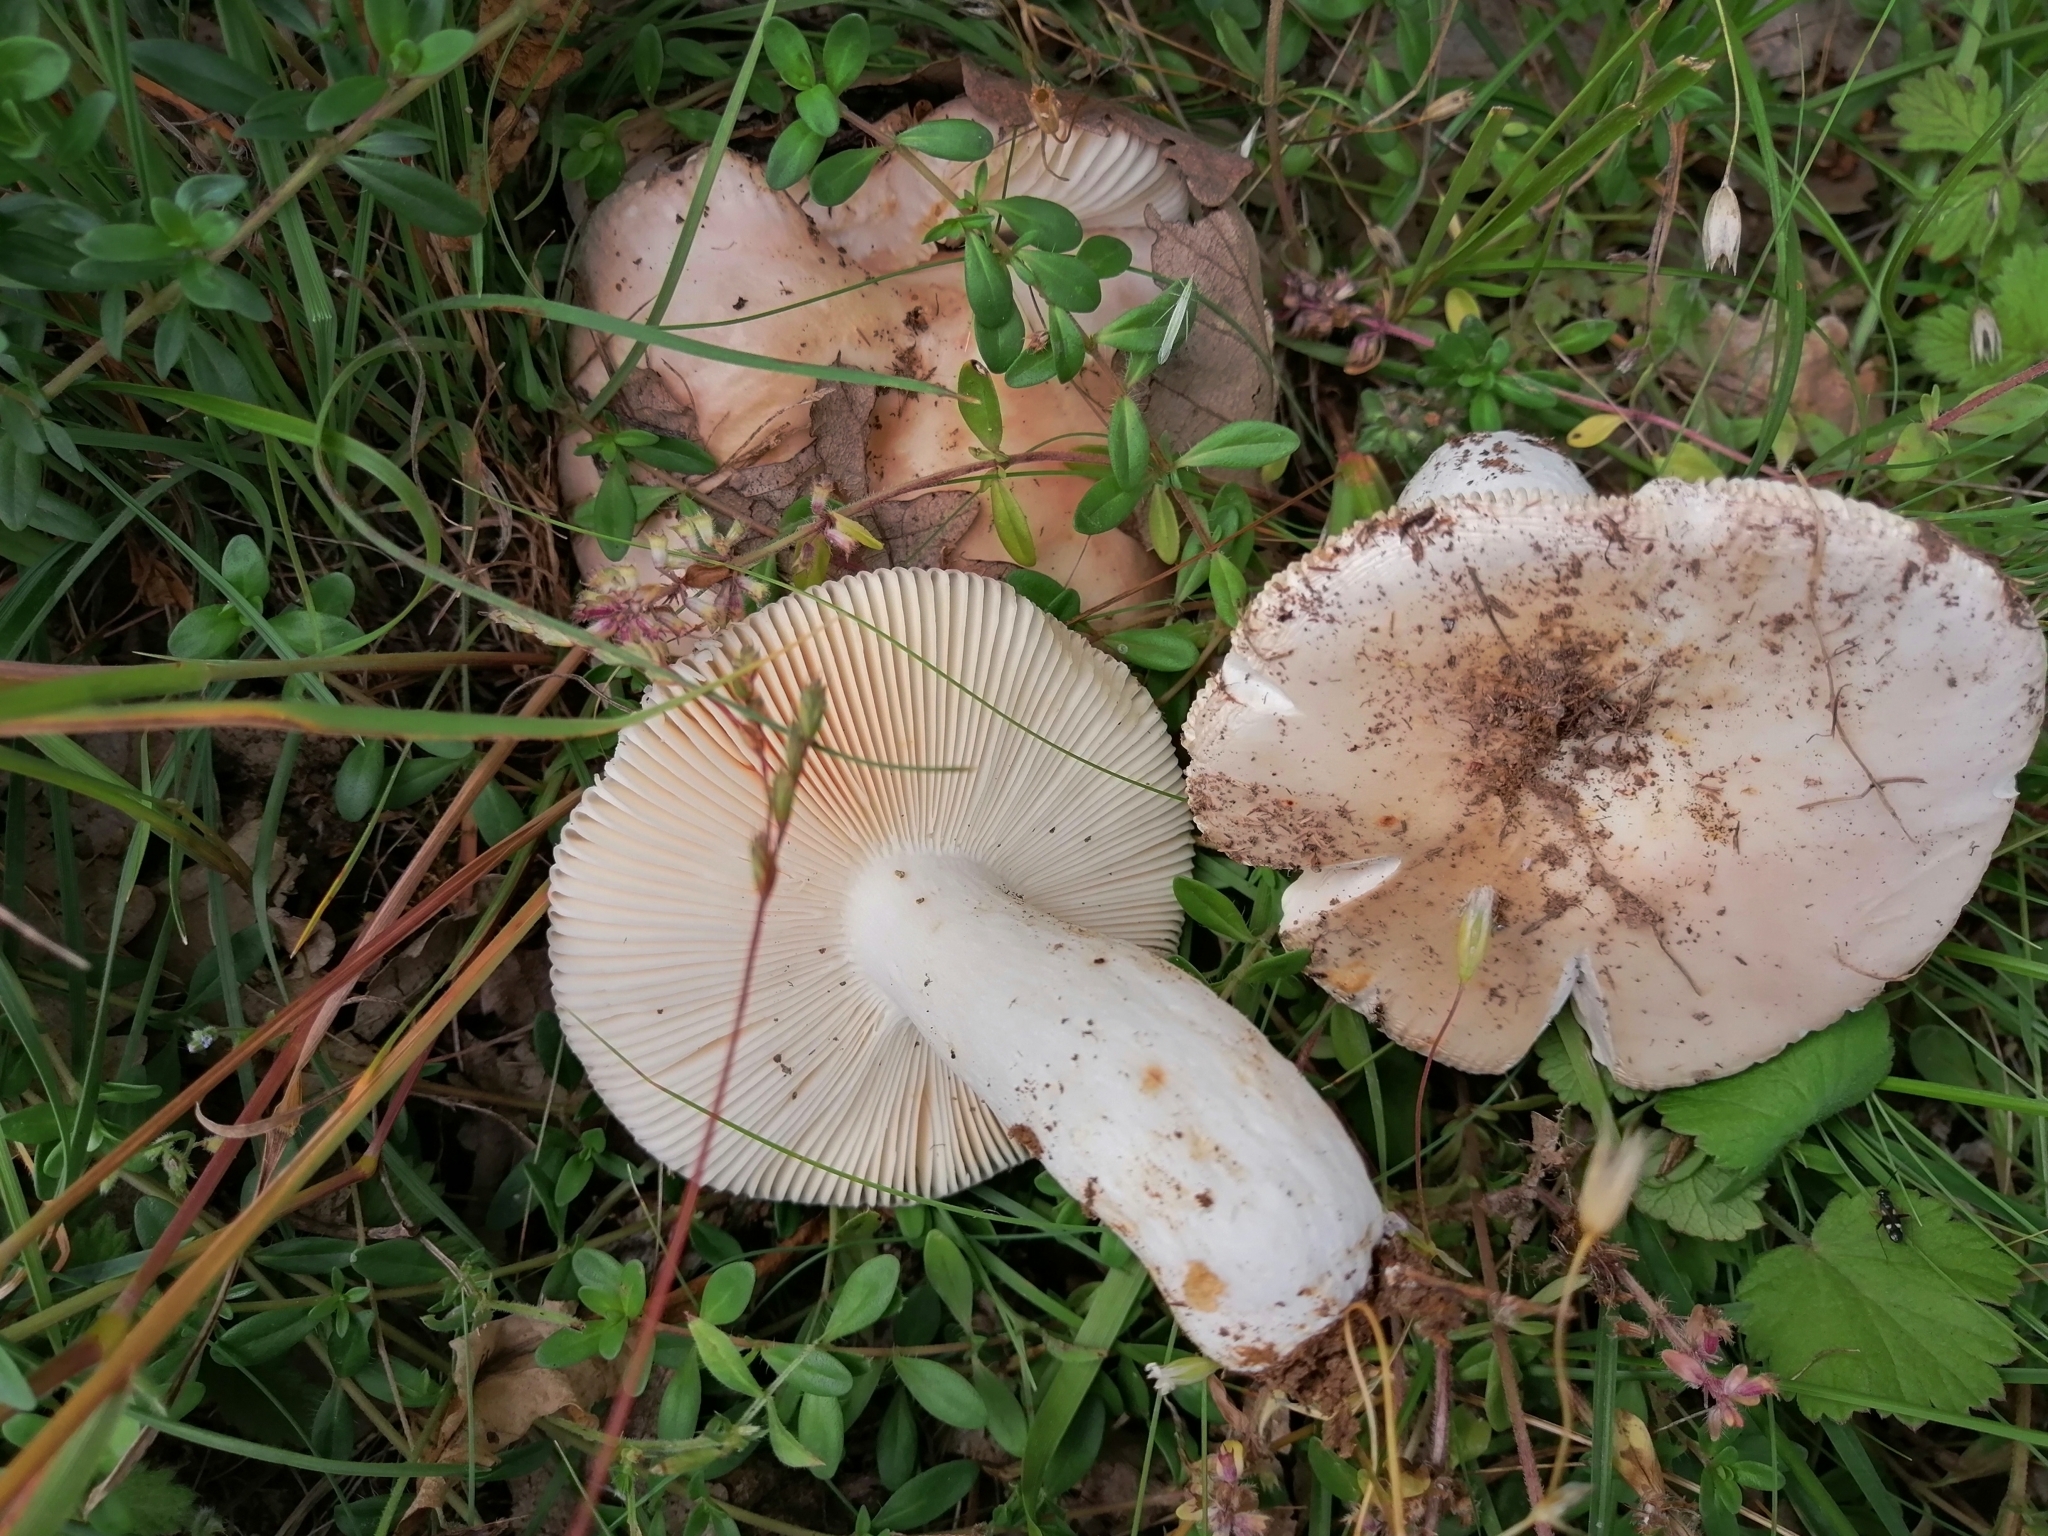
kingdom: Fungi
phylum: Basidiomycota
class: Agaricomycetes
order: Russulales
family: Russulaceae
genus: Russula
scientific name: Russula vesca
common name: Bare-toothed russula
